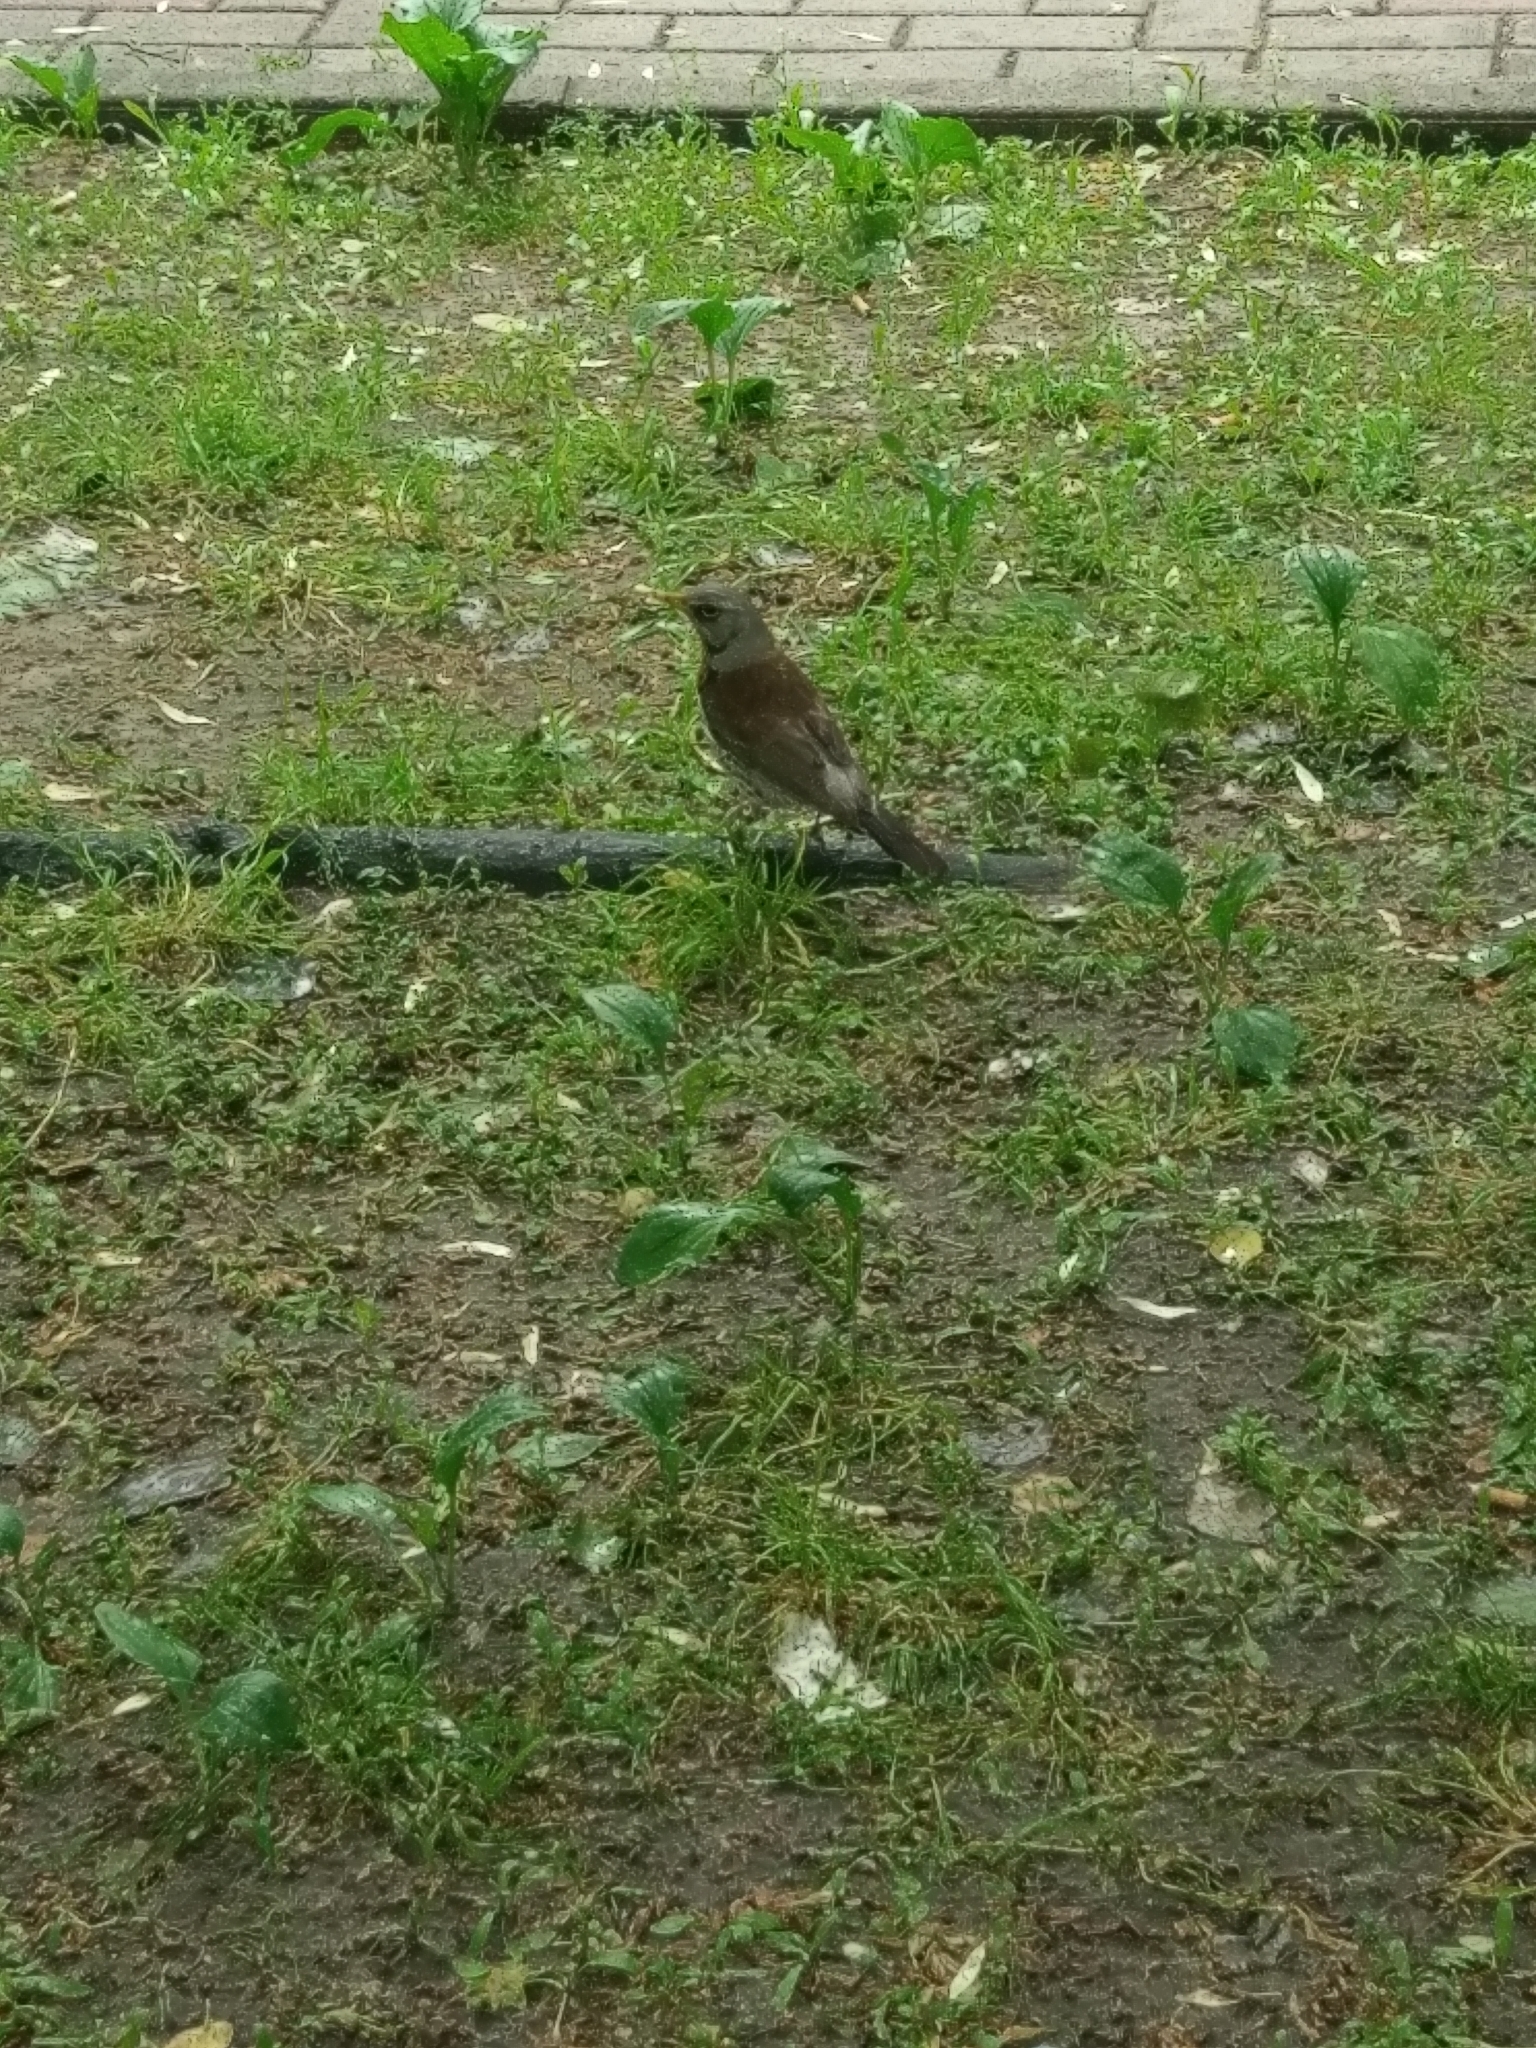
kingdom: Animalia
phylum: Chordata
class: Aves
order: Passeriformes
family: Turdidae
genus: Turdus
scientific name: Turdus pilaris
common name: Fieldfare
